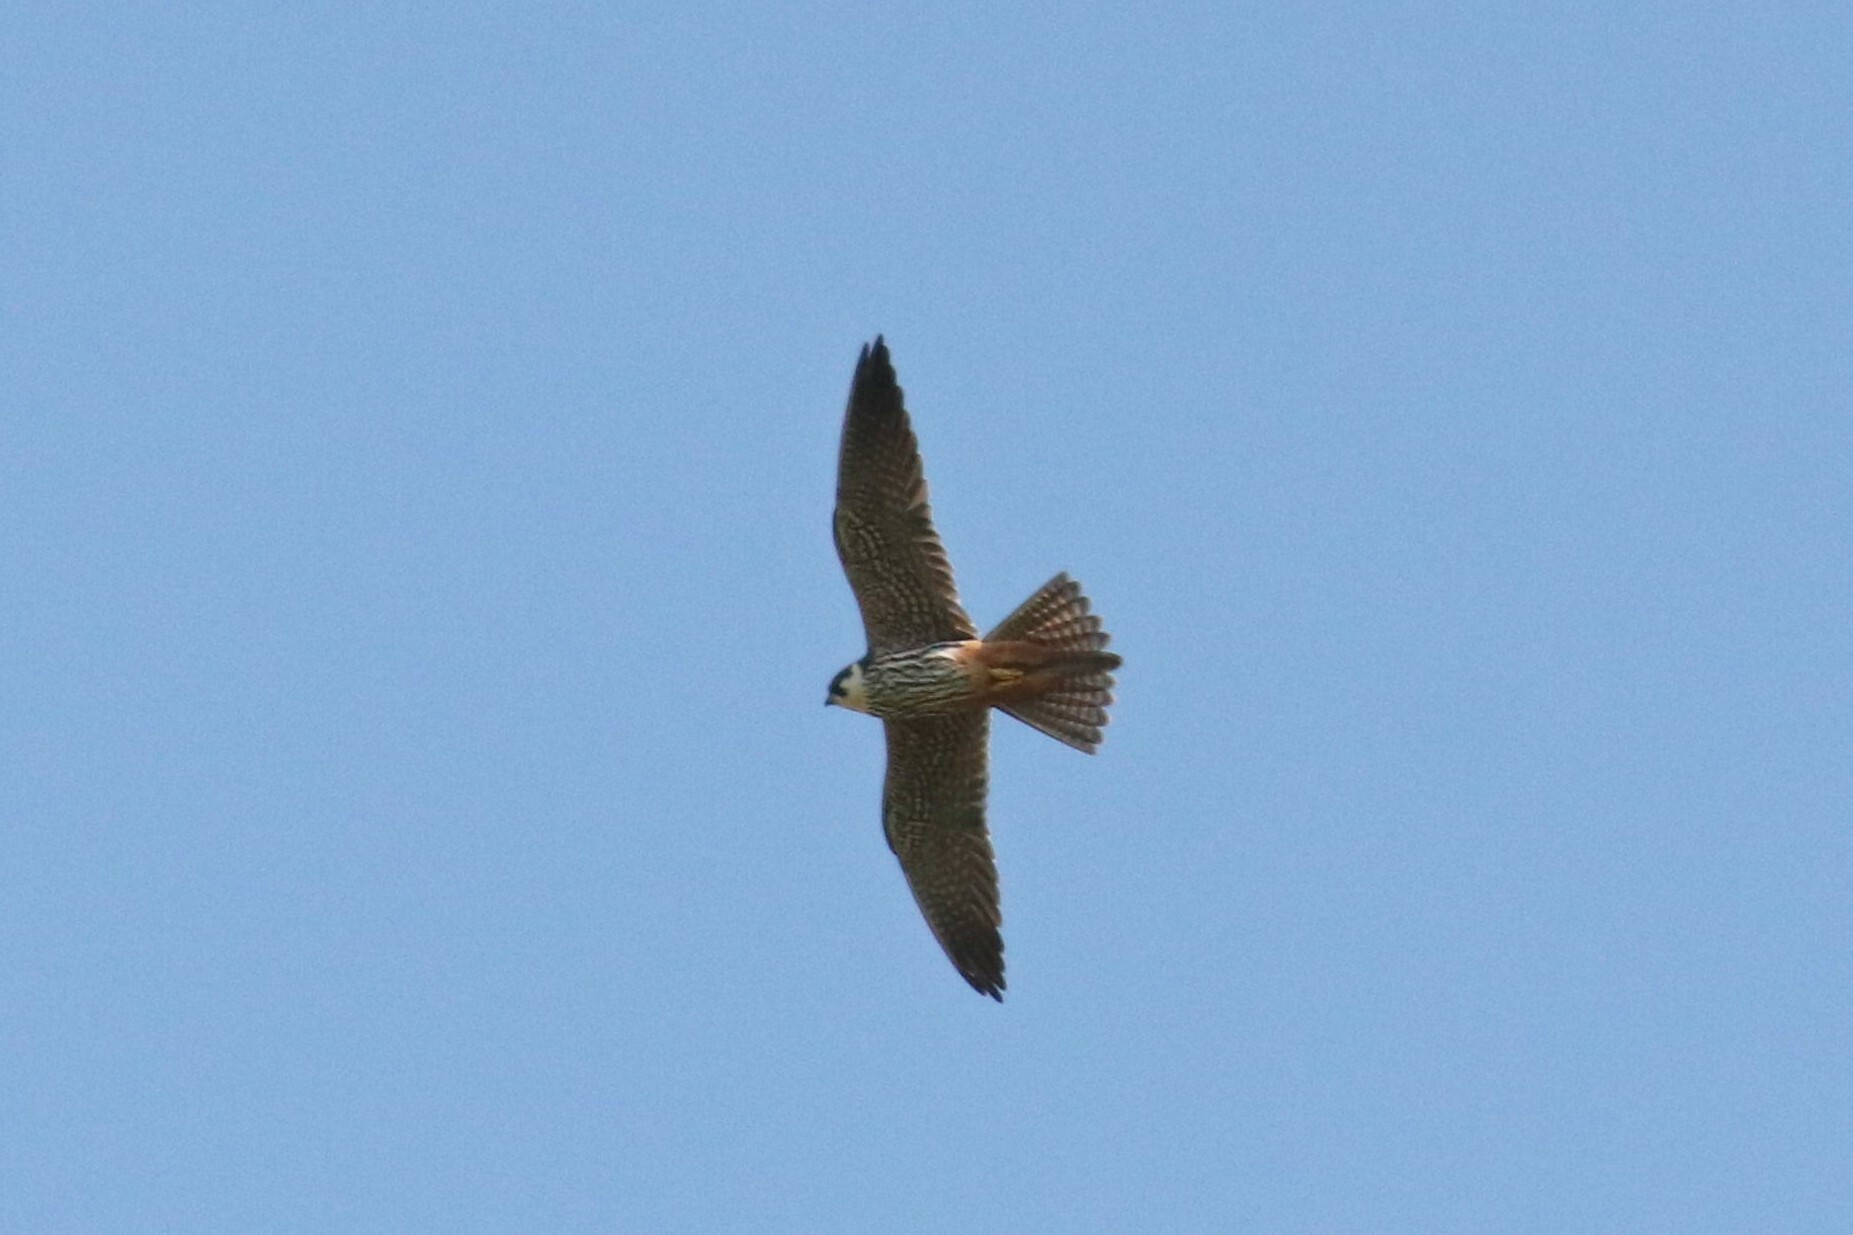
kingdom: Animalia
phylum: Chordata
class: Aves
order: Falconiformes
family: Falconidae
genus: Falco
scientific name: Falco subbuteo
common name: Eurasian hobby
